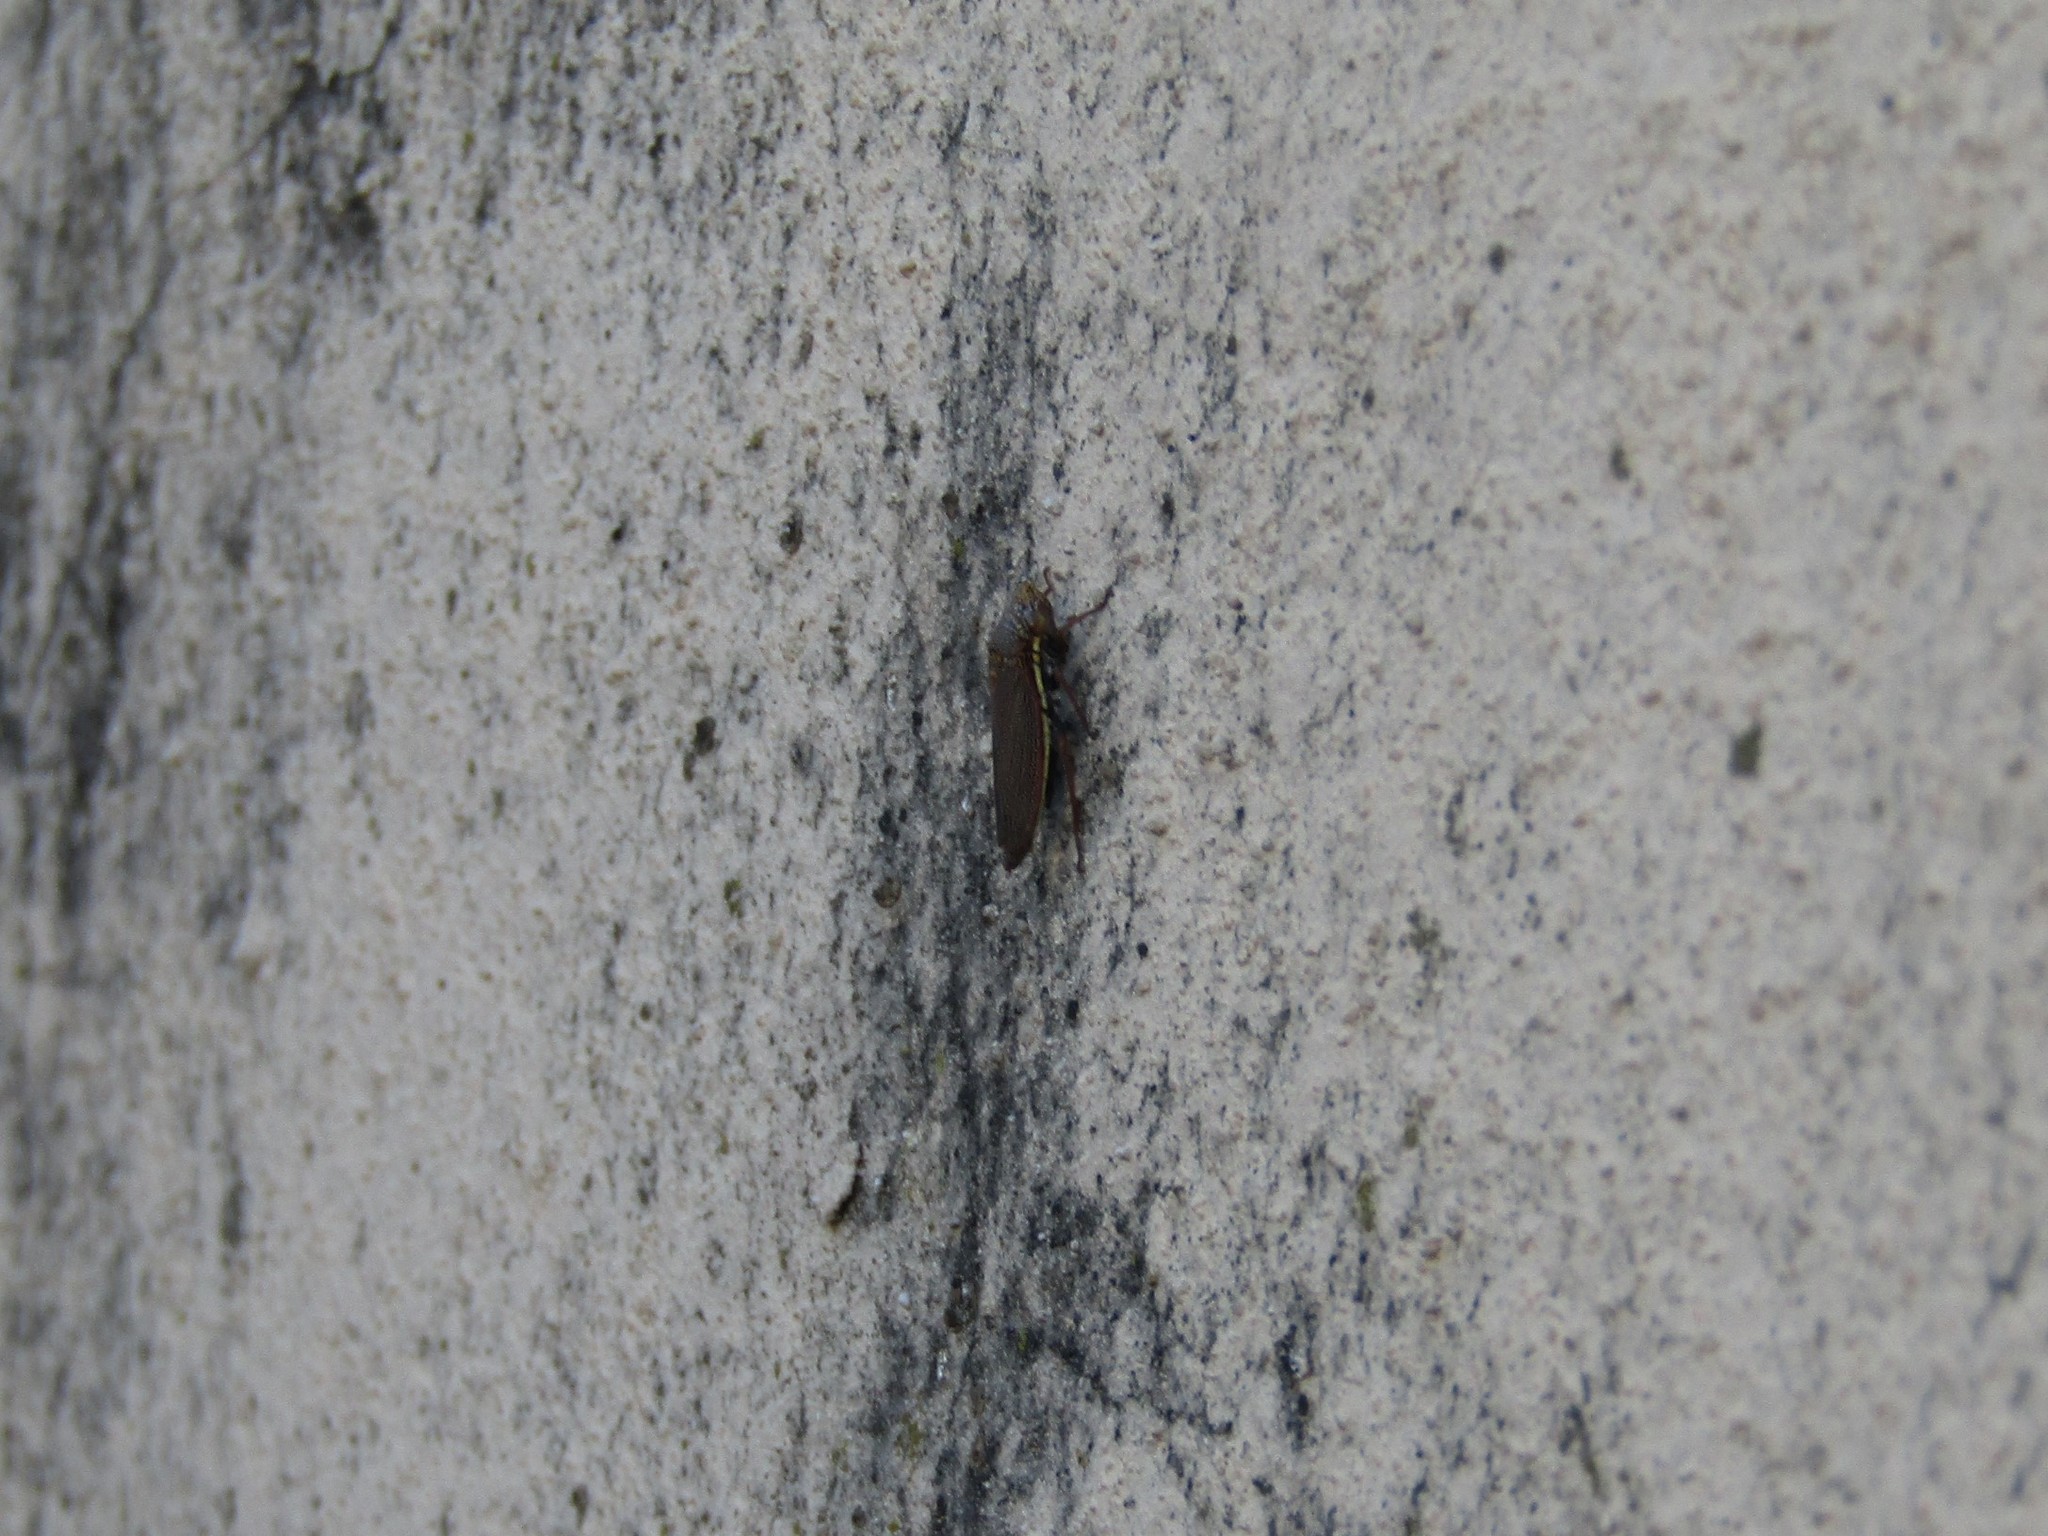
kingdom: Animalia
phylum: Arthropoda
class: Insecta
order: Hemiptera
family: Cicadellidae
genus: Tapajosa
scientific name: Tapajosa rubromarginata
